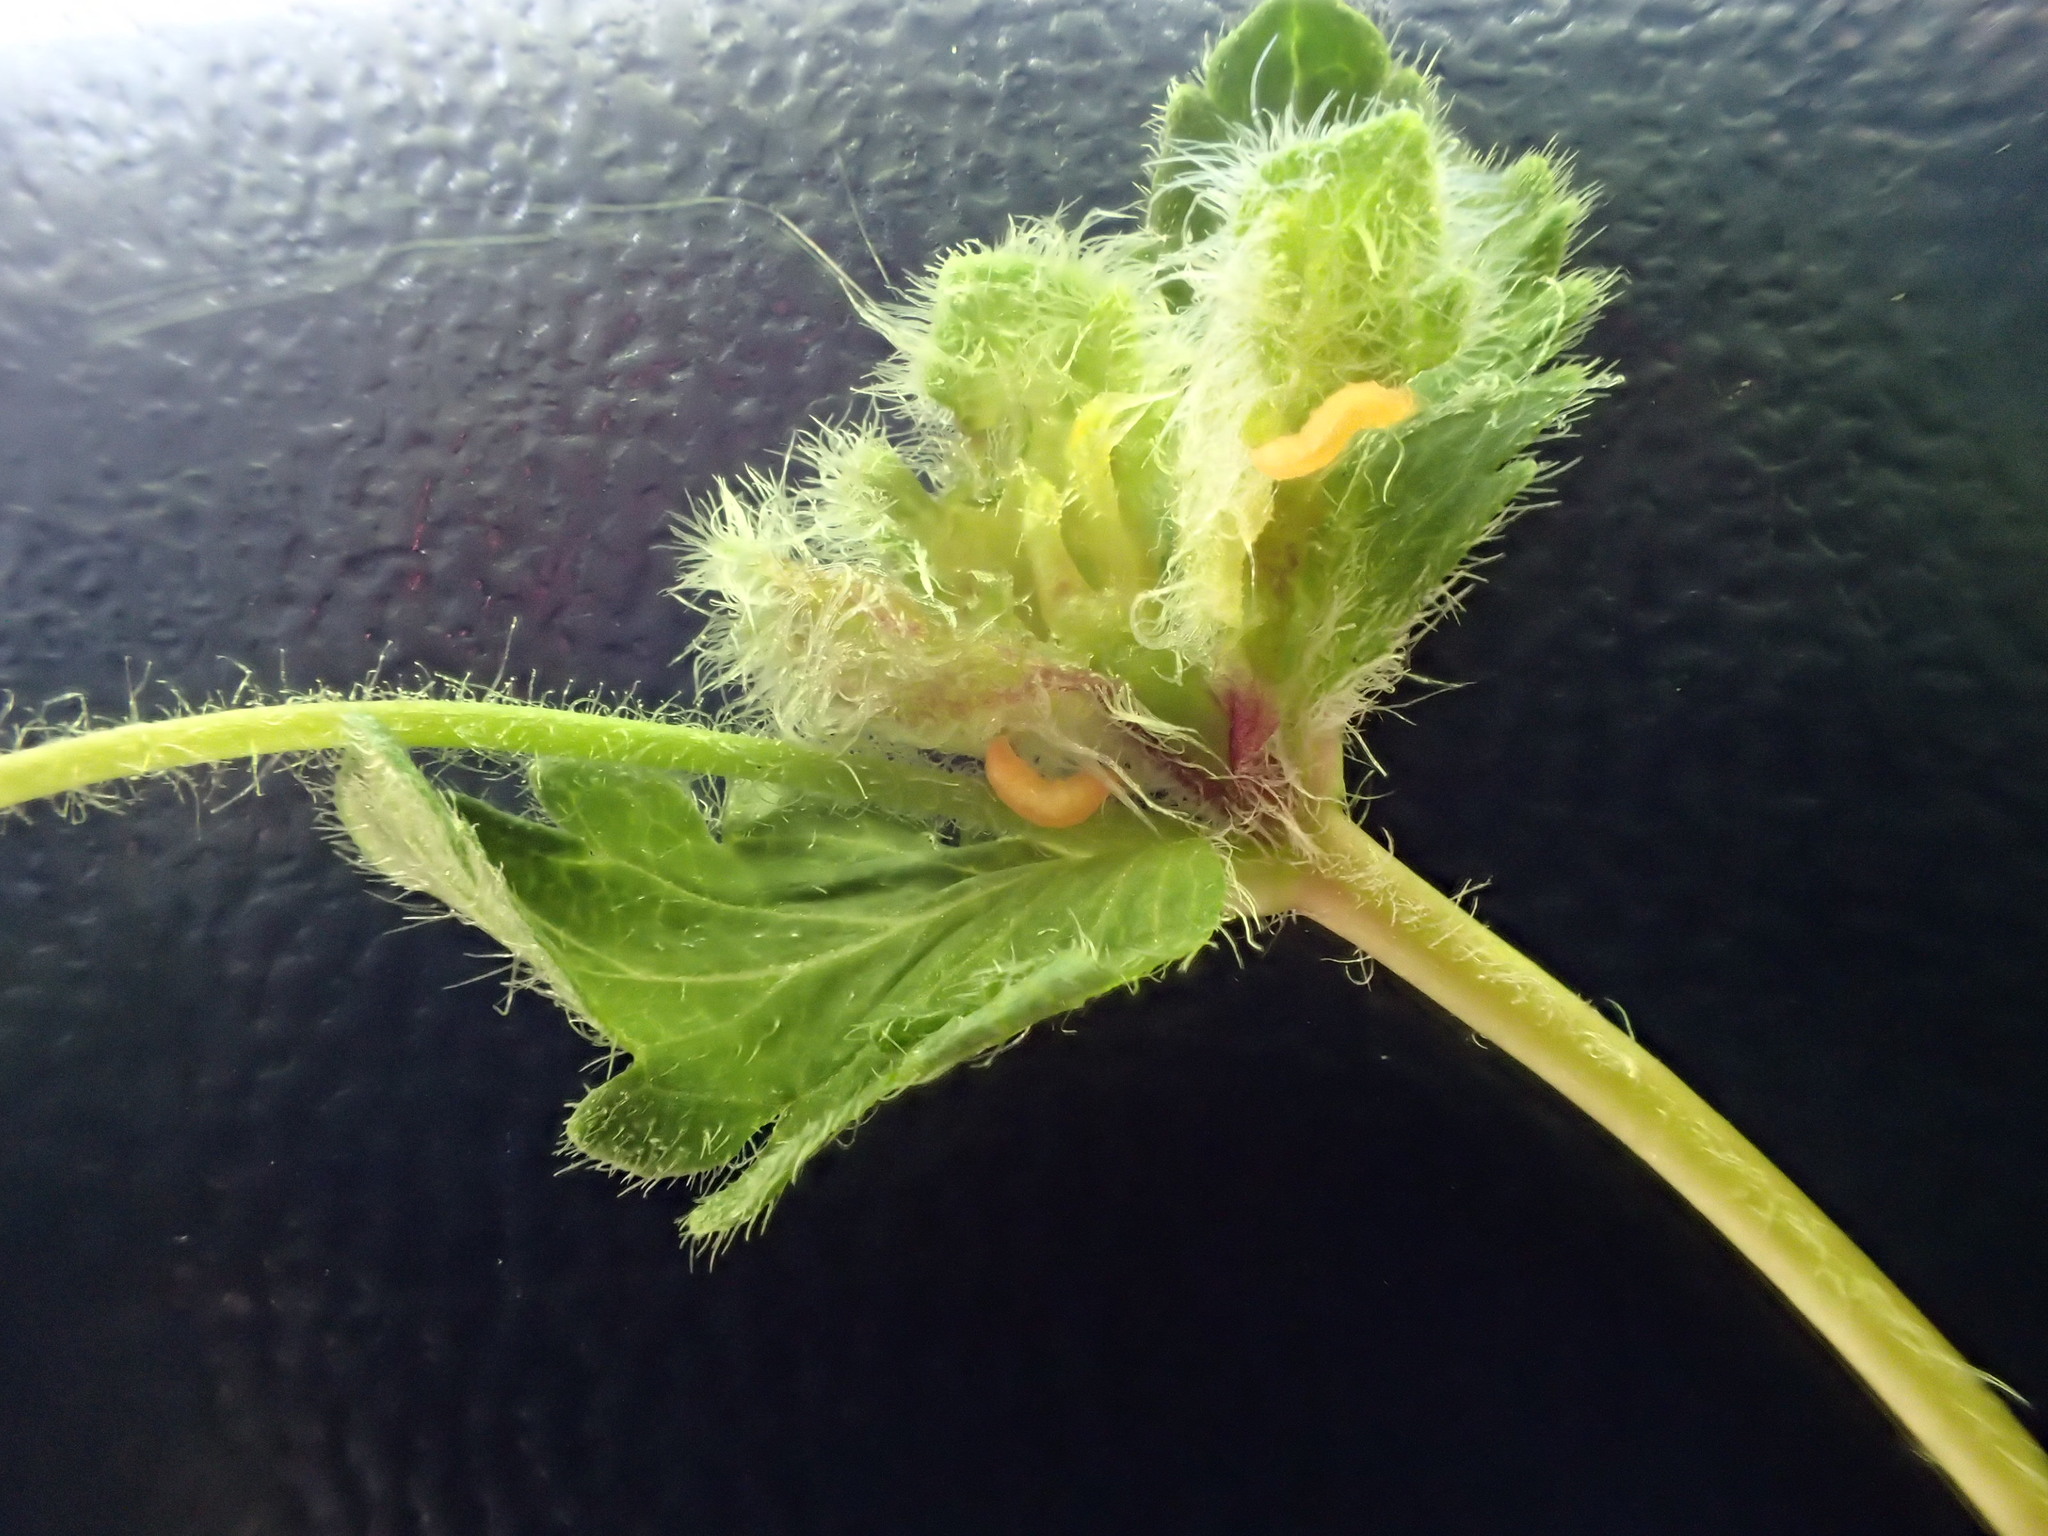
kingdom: Animalia
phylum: Arthropoda
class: Insecta
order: Diptera
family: Cecidomyiidae
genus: Jaapiella
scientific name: Jaapiella veronicae
